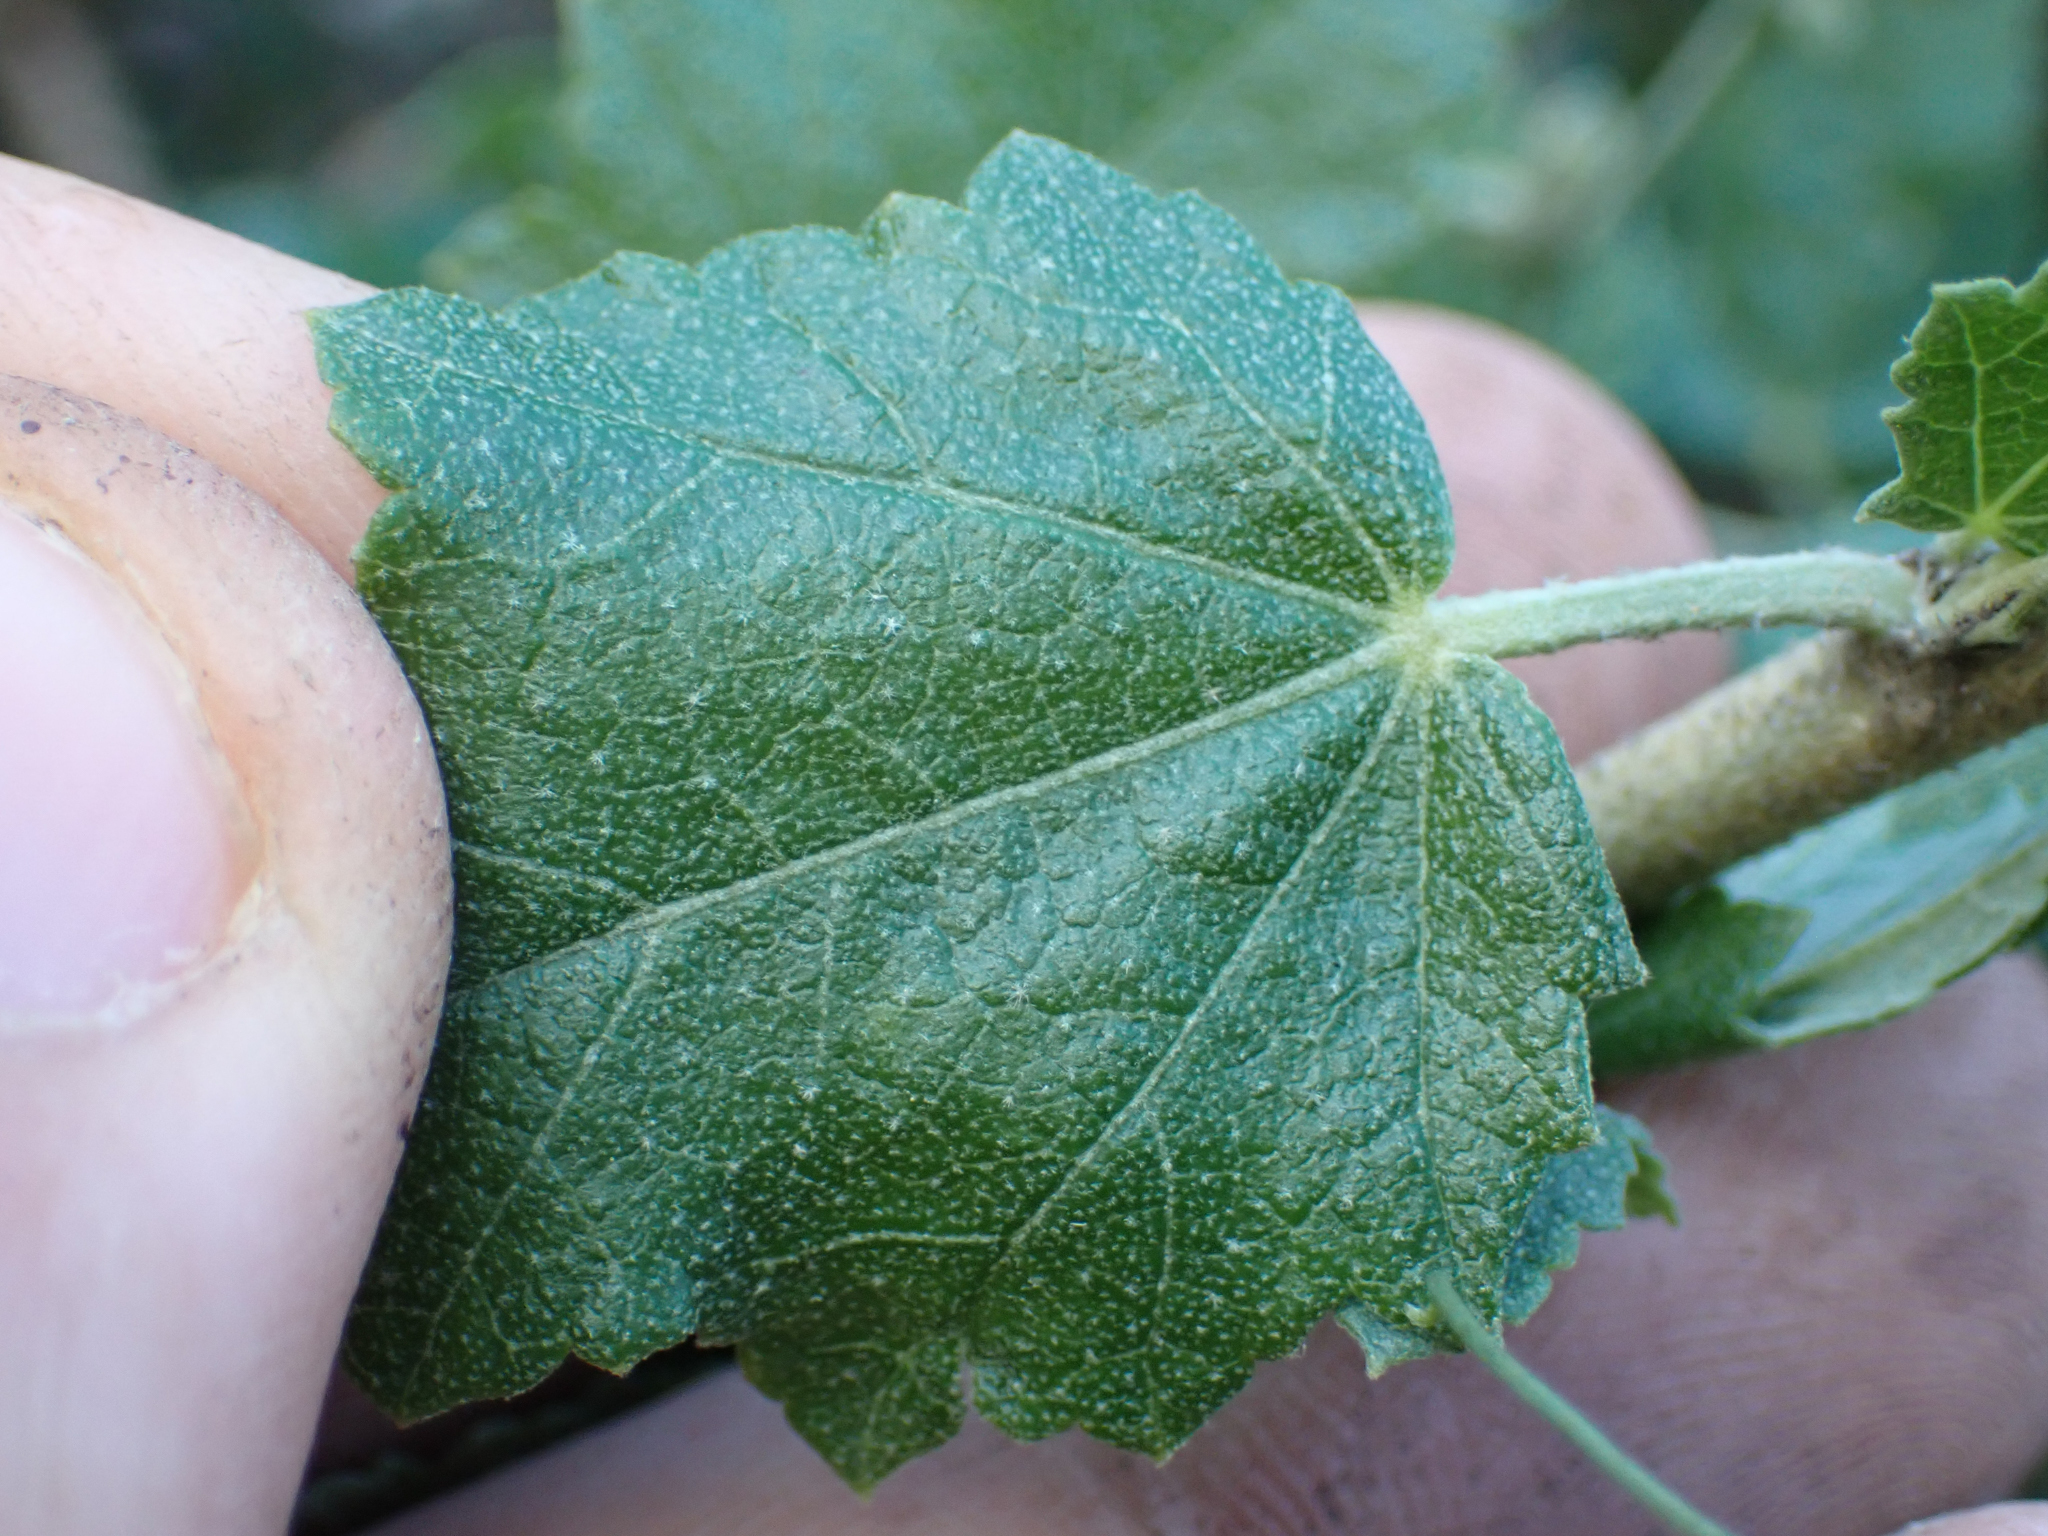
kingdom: Plantae
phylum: Tracheophyta
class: Magnoliopsida
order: Malvales
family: Malvaceae
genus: Malacothamnus
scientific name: Malacothamnus fasciculatus
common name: Sant cruz island bush-mallow
